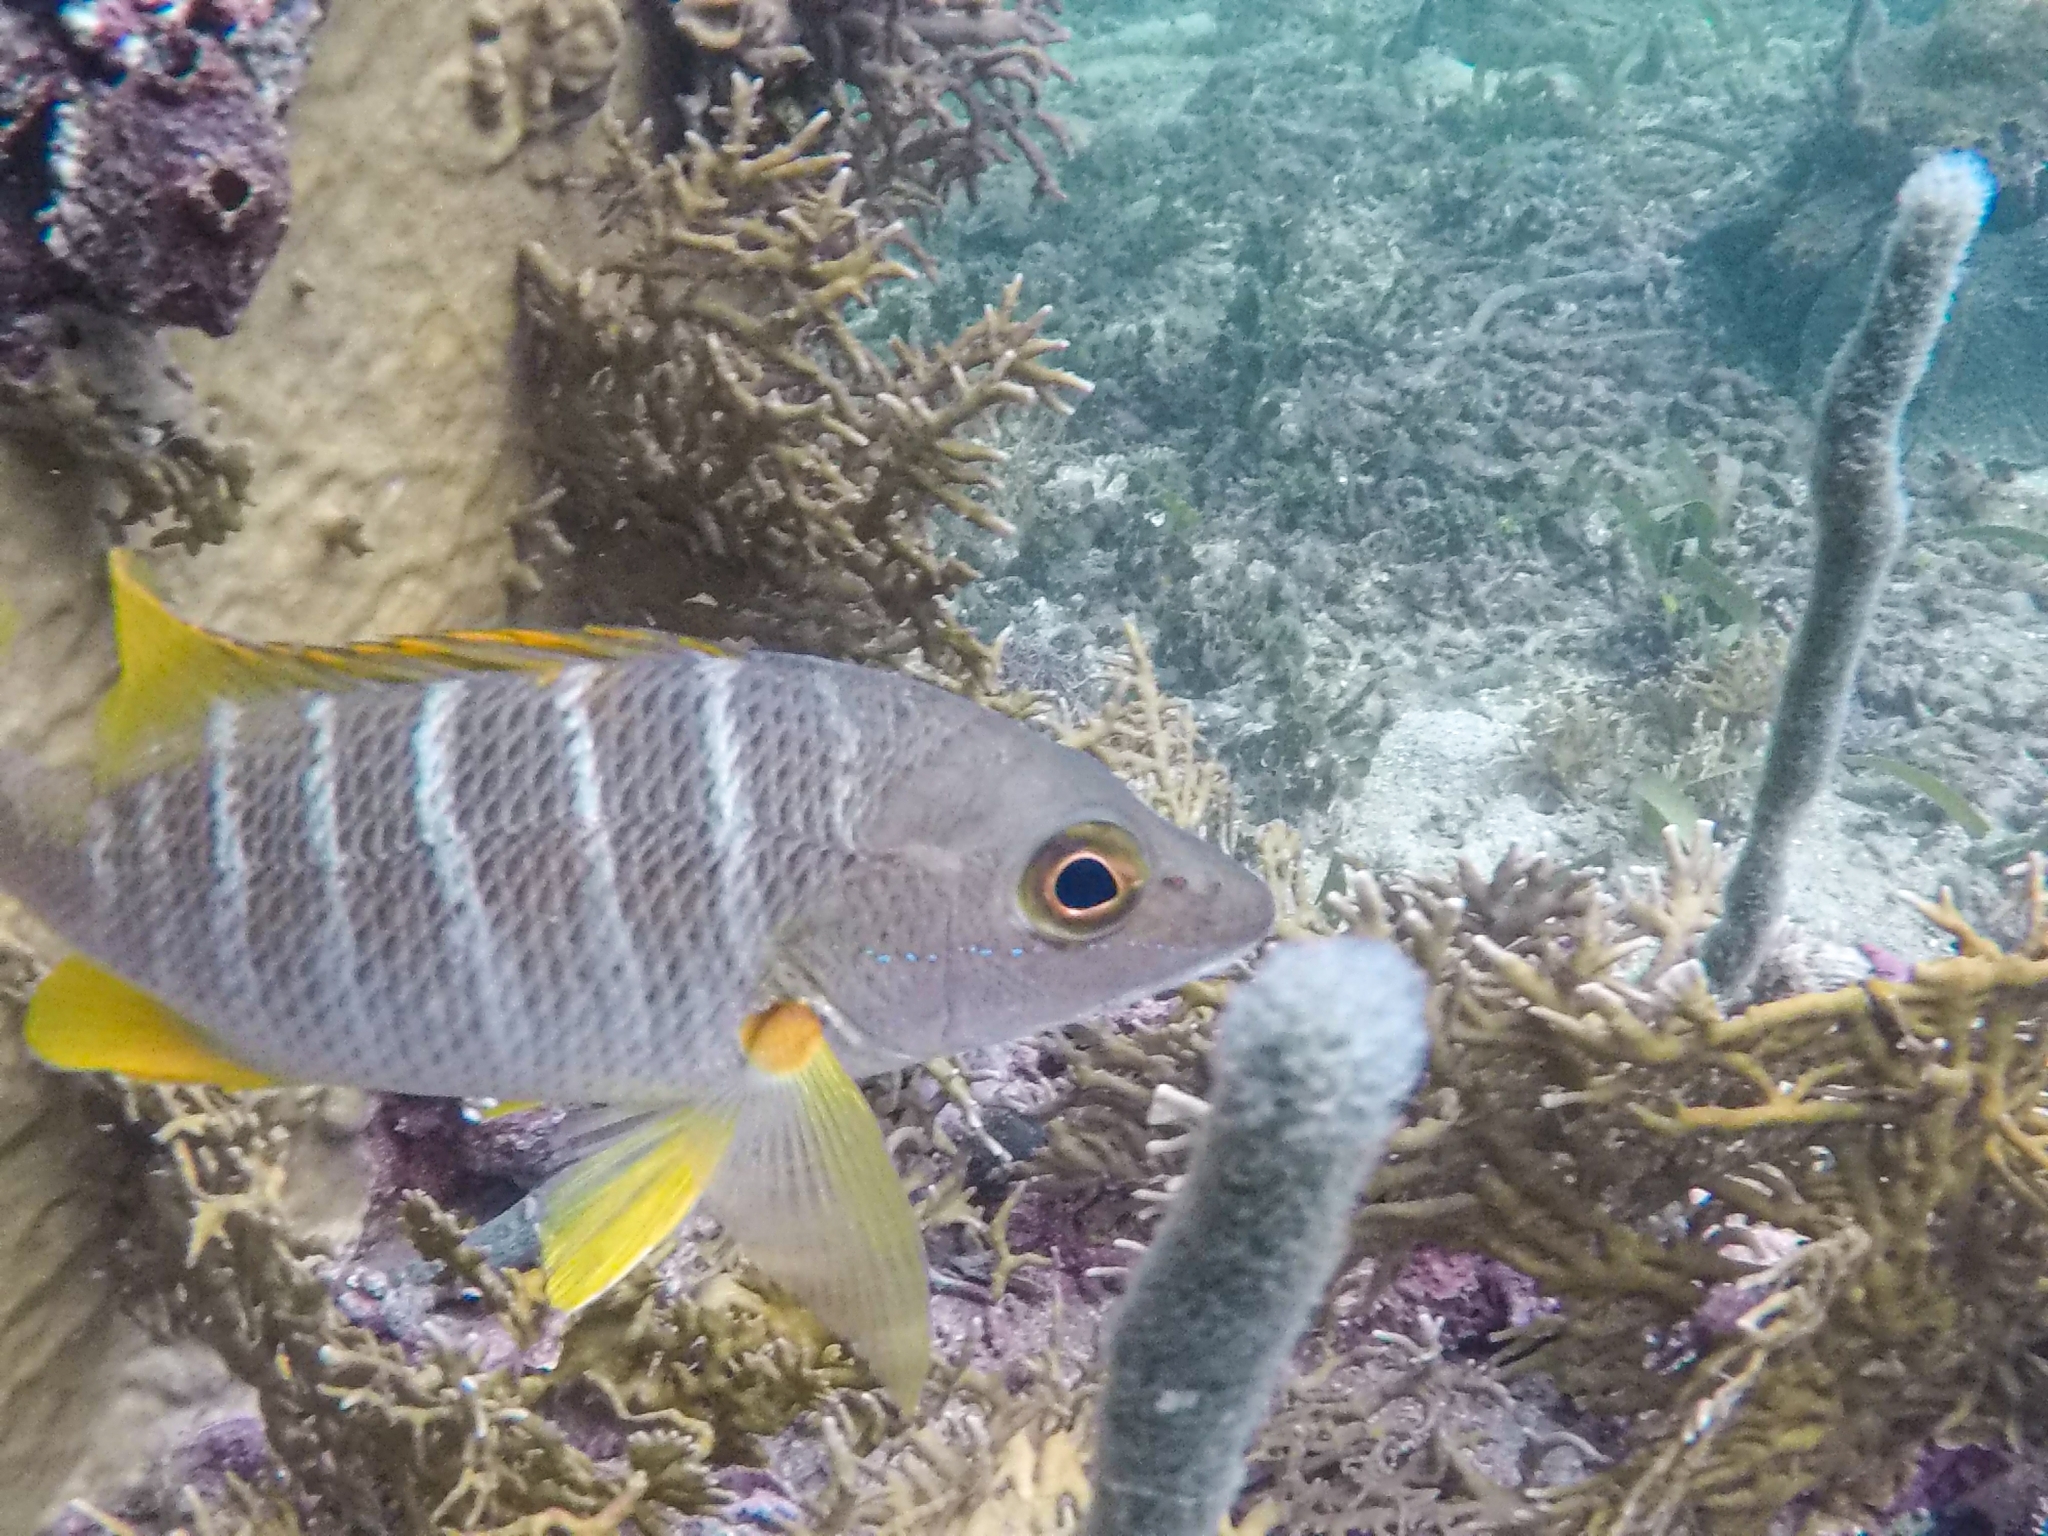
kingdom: Animalia
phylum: Chordata
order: Perciformes
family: Lutjanidae
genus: Lutjanus
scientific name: Lutjanus apodus
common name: Schoolmaster
